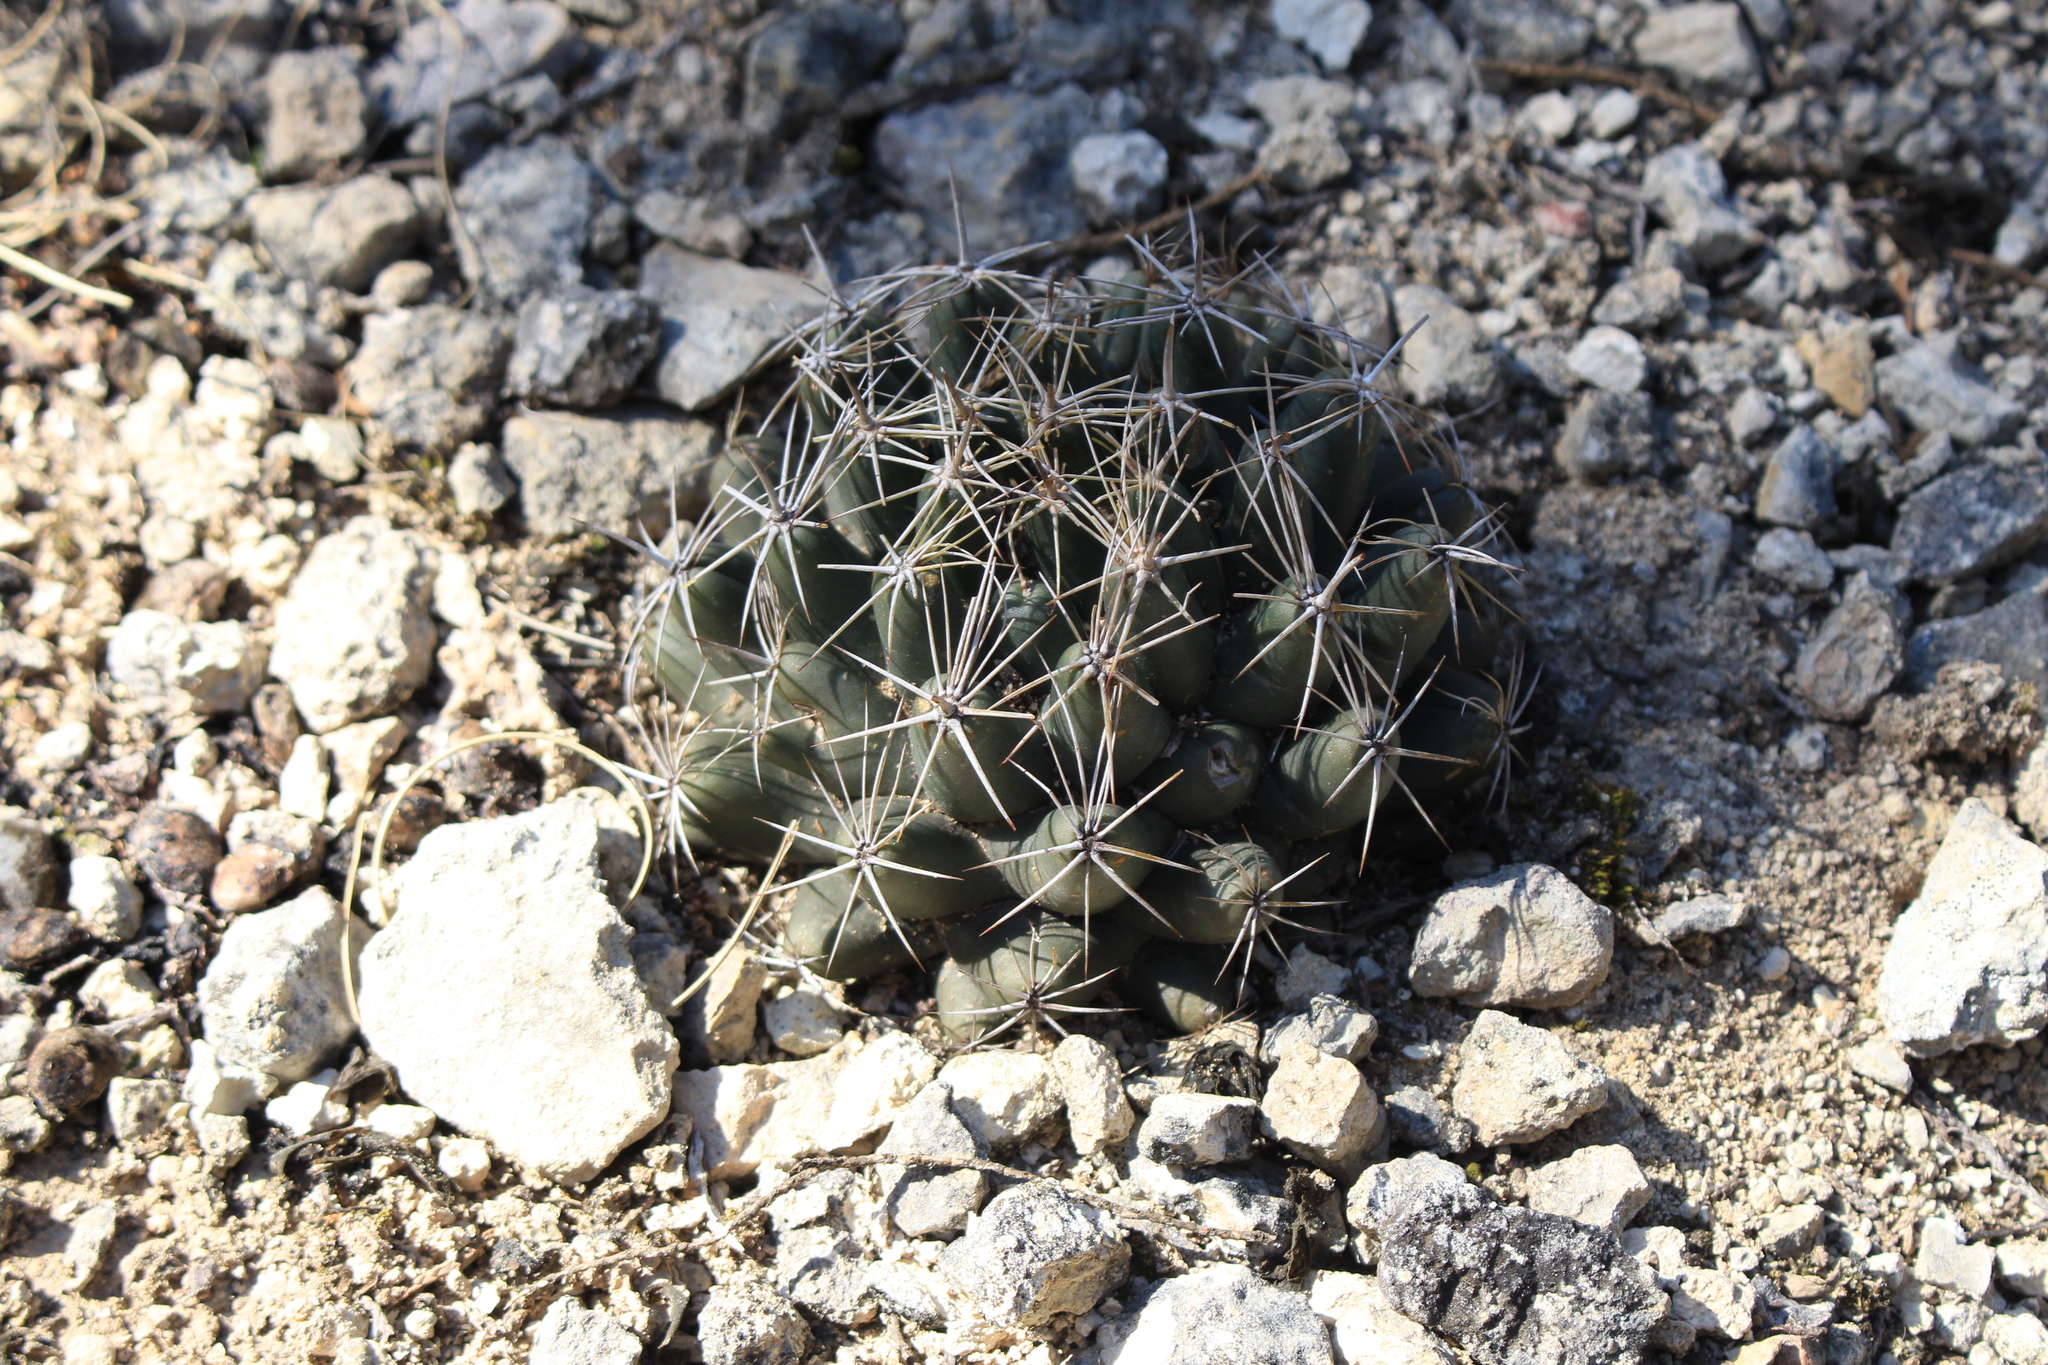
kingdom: Plantae
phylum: Tracheophyta
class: Magnoliopsida
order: Caryophyllales
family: Cactaceae
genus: Coryphantha
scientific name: Coryphantha sulcata
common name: Finger cactus
